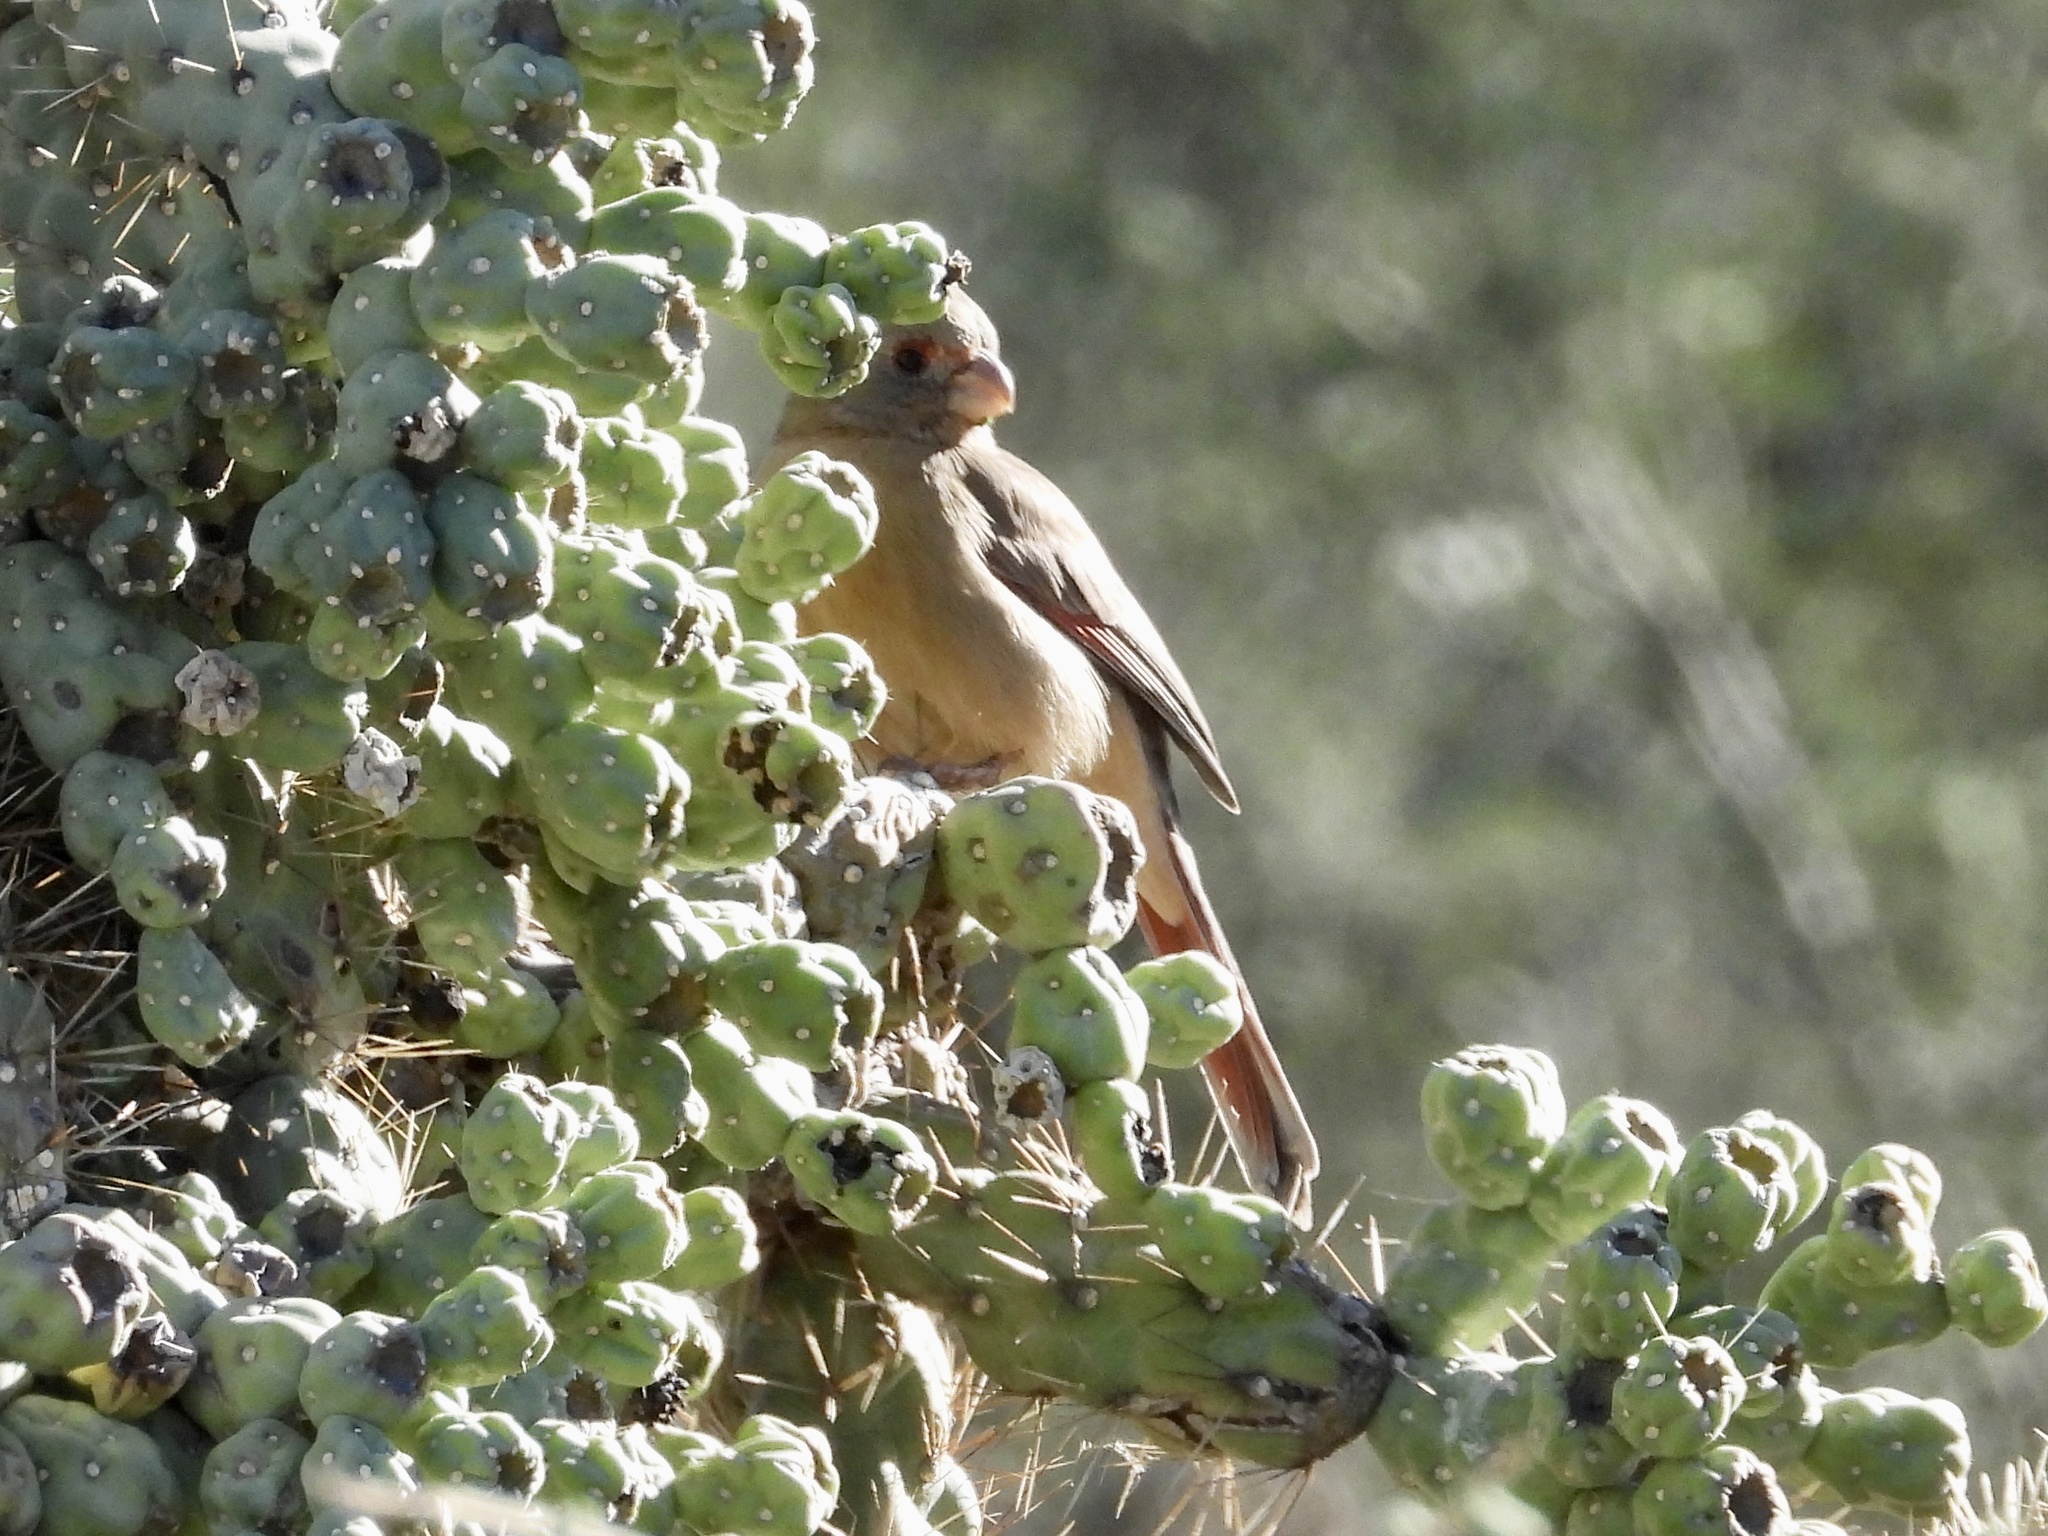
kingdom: Animalia
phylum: Chordata
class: Aves
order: Passeriformes
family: Cardinalidae
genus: Cardinalis
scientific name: Cardinalis sinuatus
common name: Pyrrhuloxia
